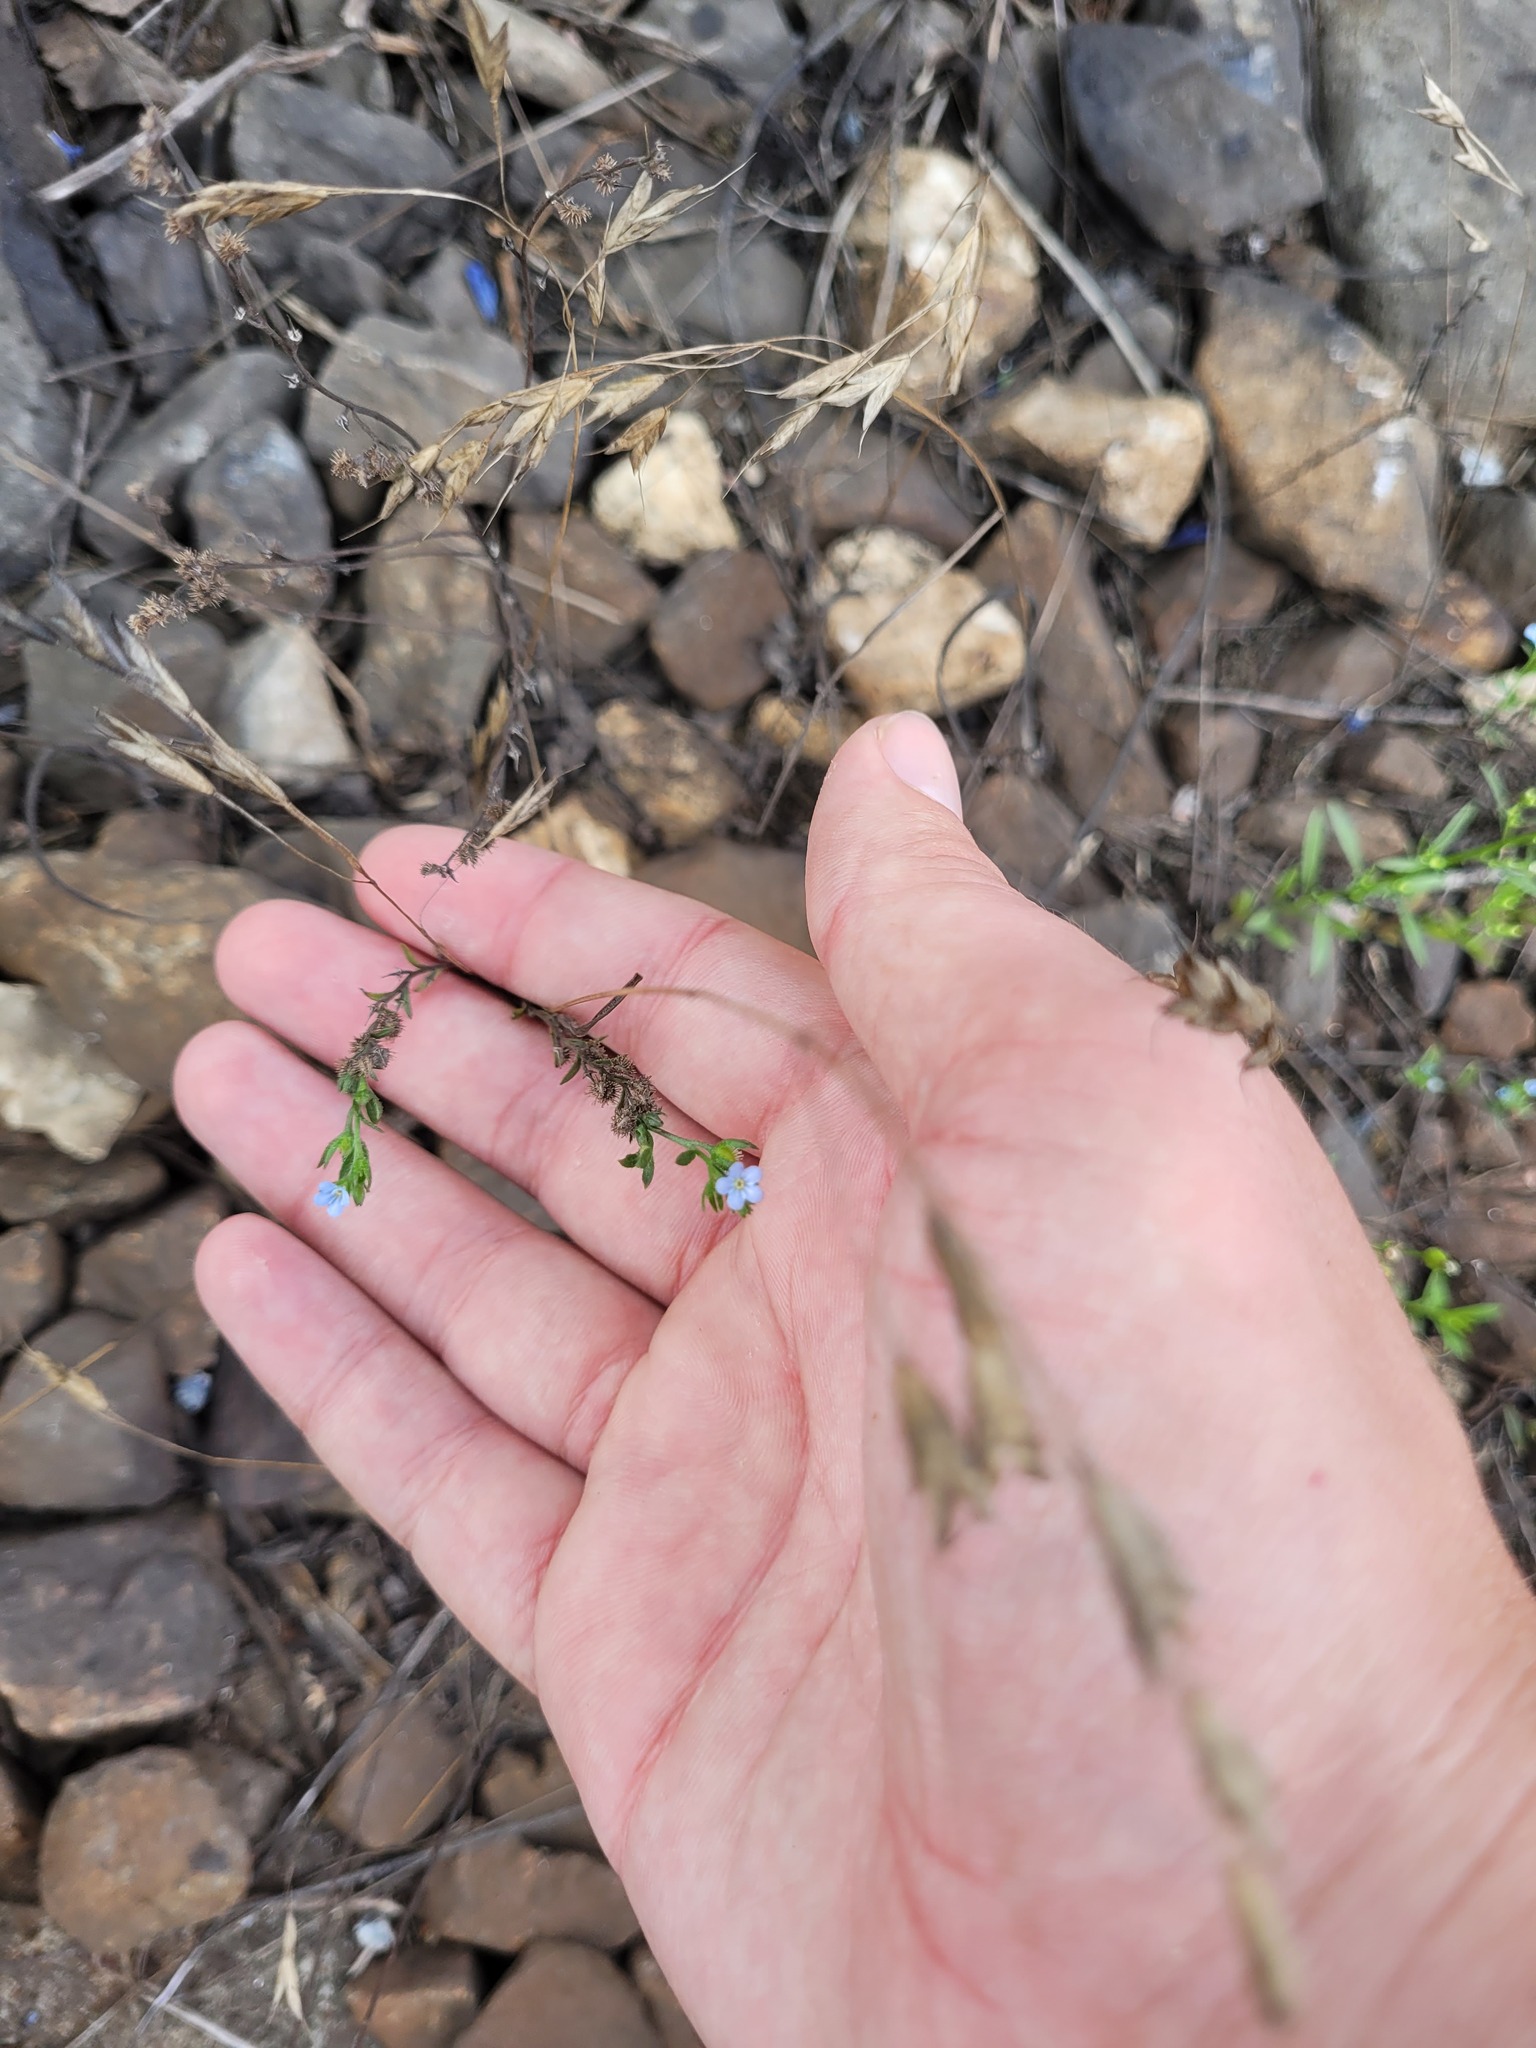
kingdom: Plantae
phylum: Tracheophyta
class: Magnoliopsida
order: Boraginales
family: Boraginaceae
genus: Lappula
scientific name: Lappula squarrosa
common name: European stickseed
